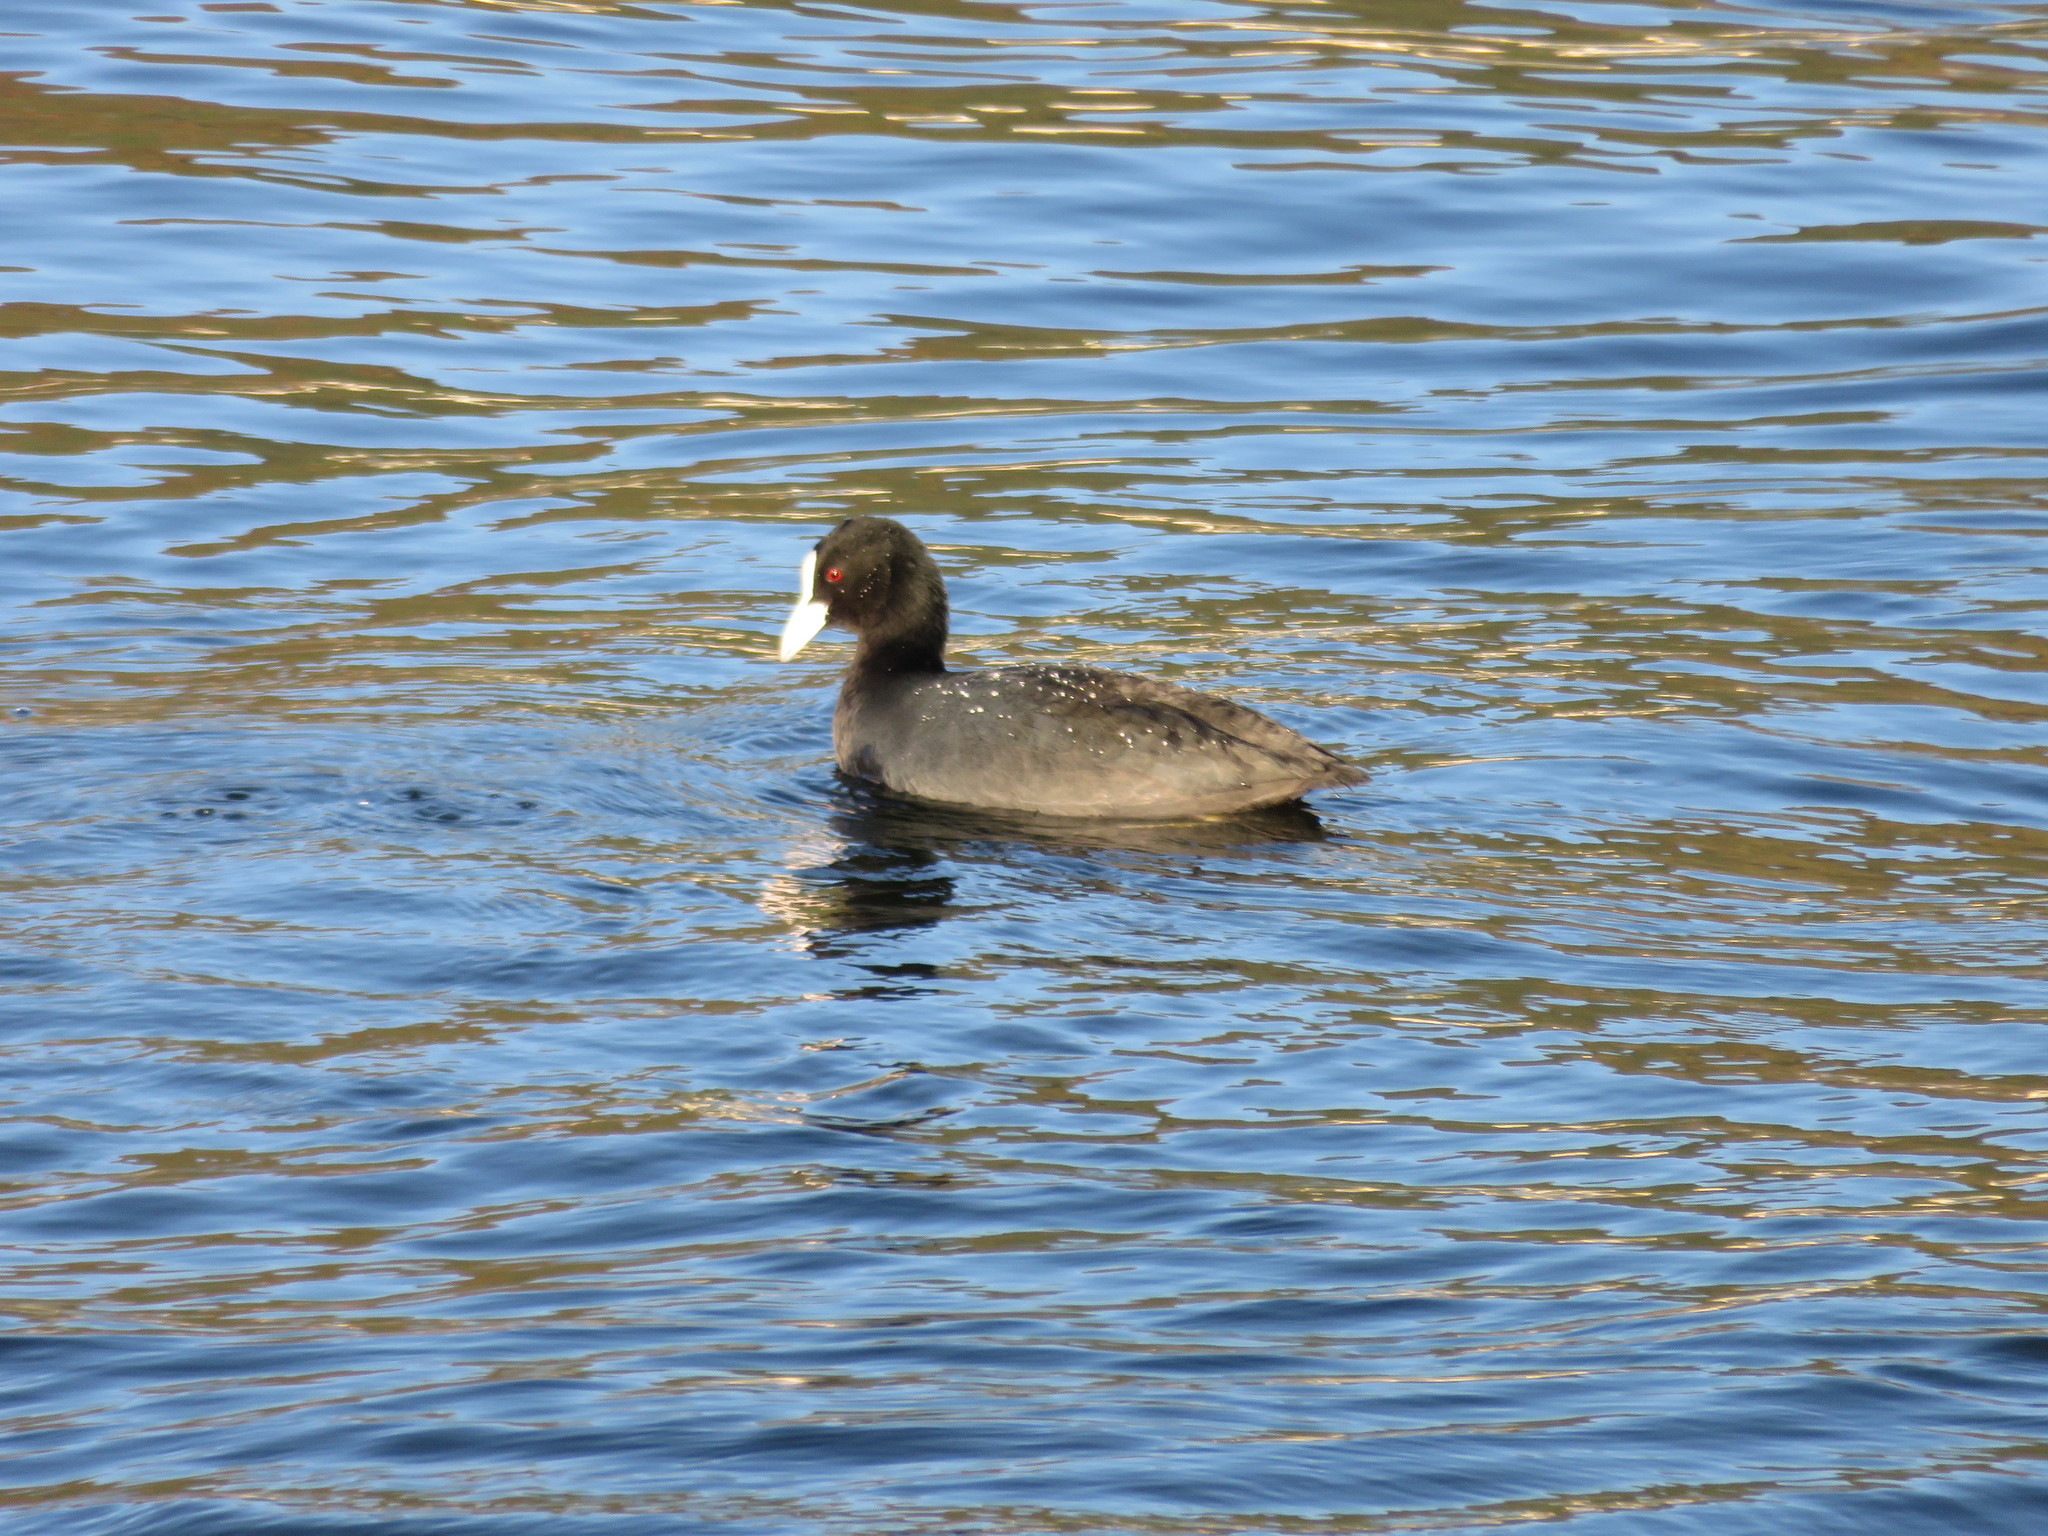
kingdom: Animalia
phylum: Chordata
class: Aves
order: Gruiformes
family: Rallidae
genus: Fulica
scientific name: Fulica atra
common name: Eurasian coot
